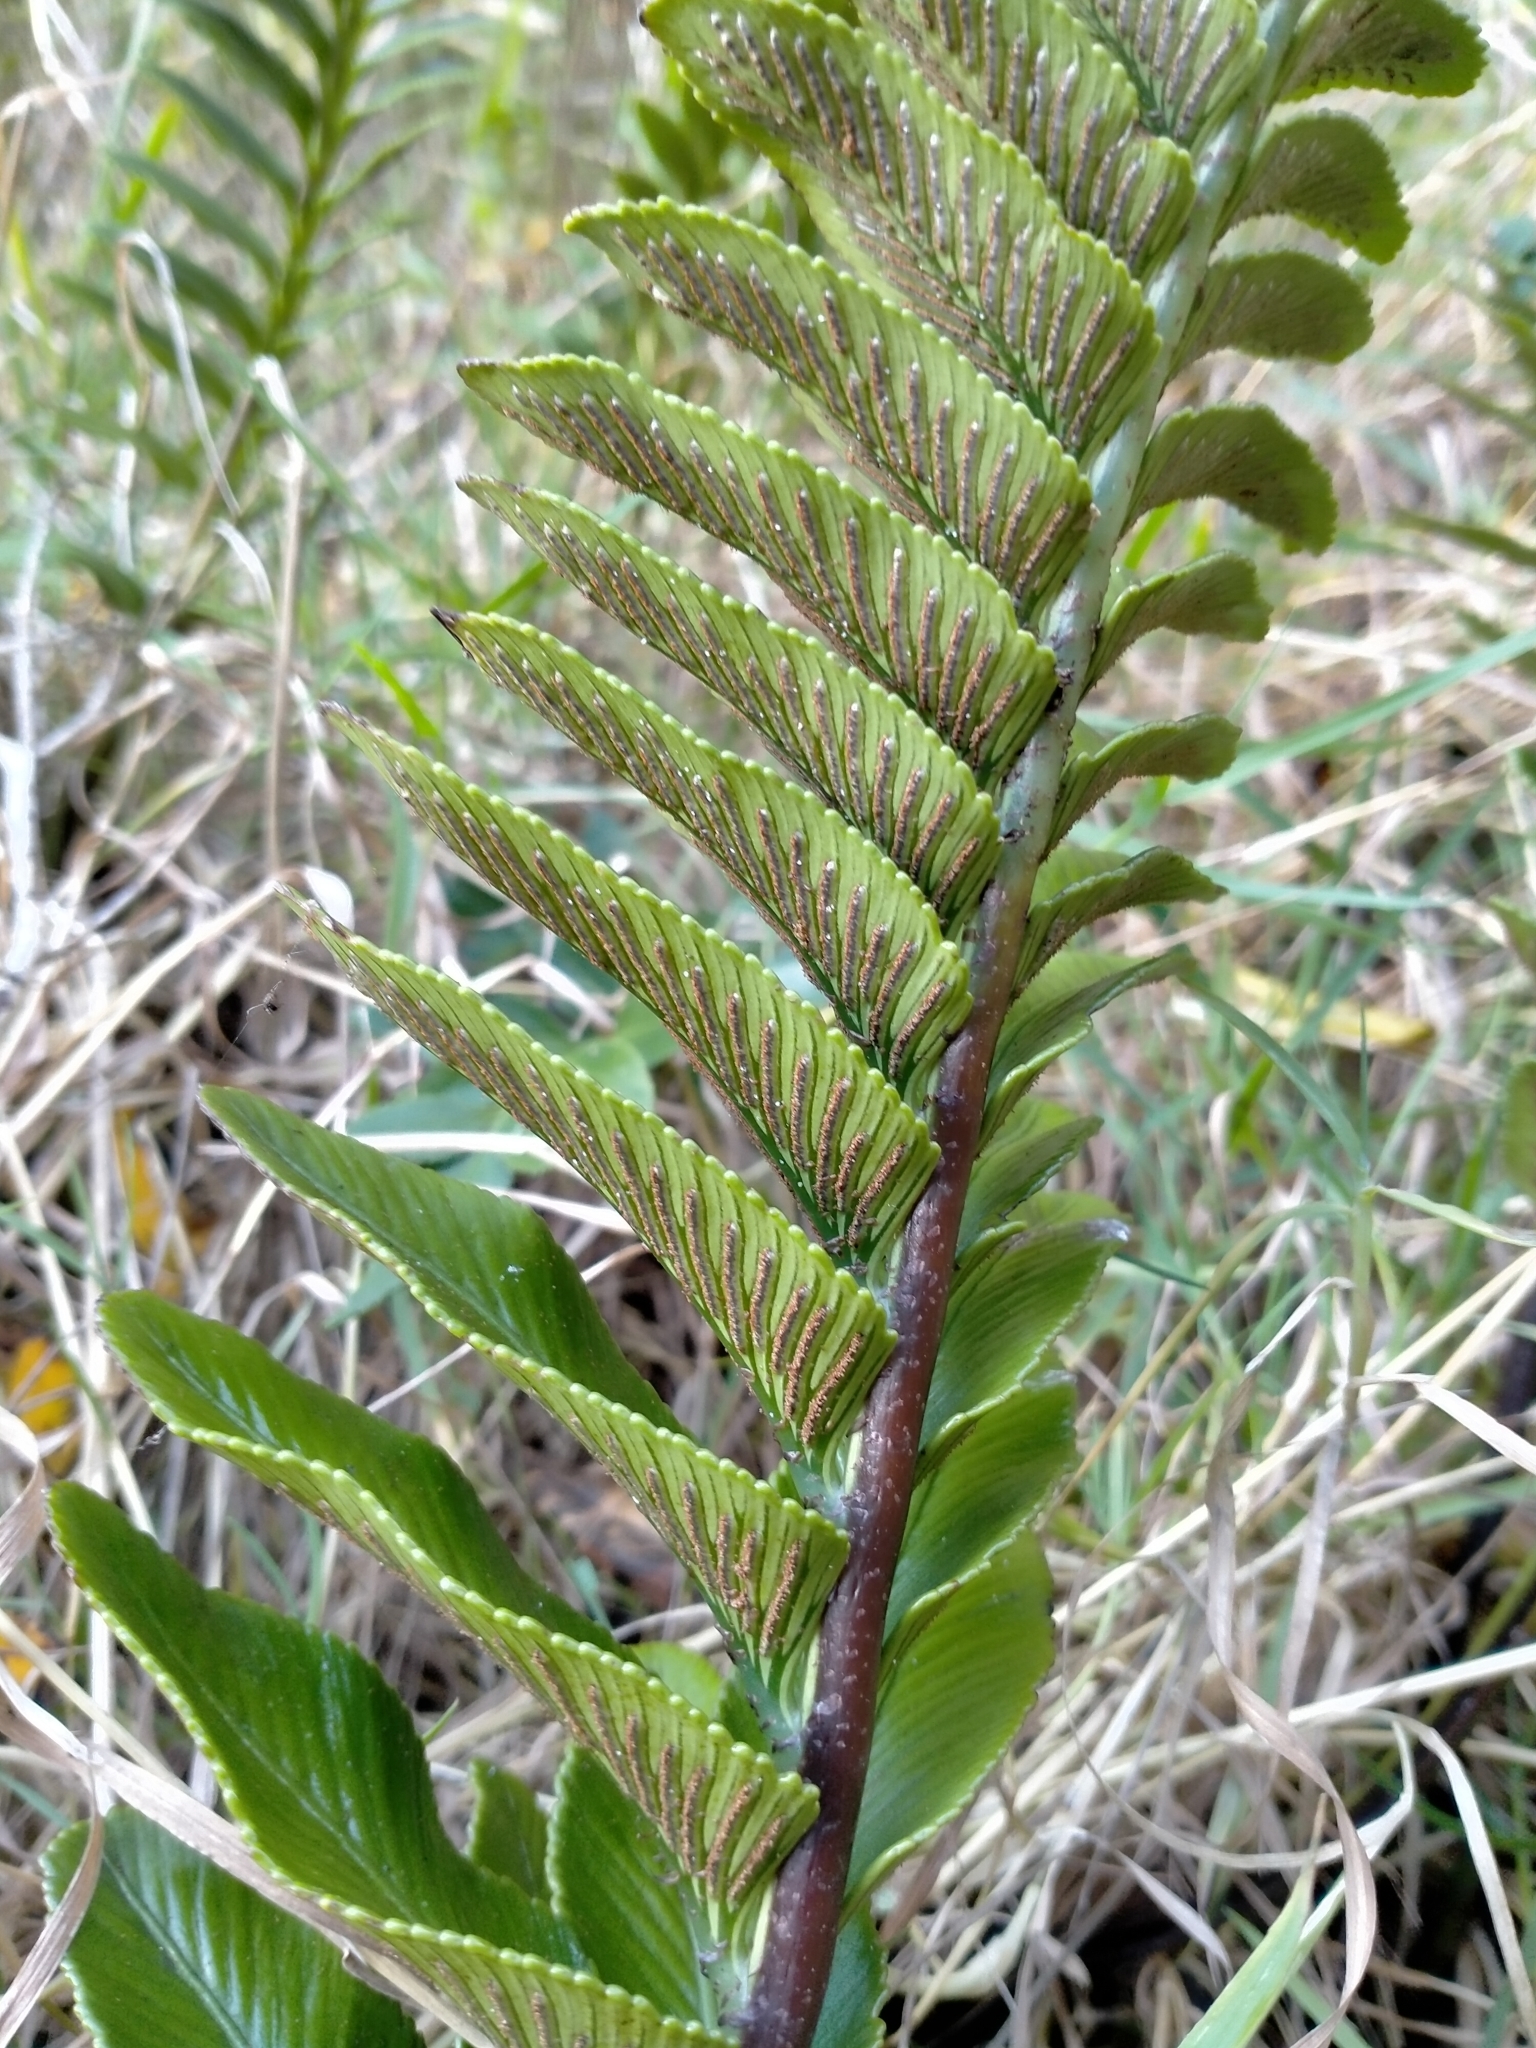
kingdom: Plantae
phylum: Tracheophyta
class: Polypodiopsida
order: Polypodiales
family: Aspleniaceae
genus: Asplenium
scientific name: Asplenium obtusatum
